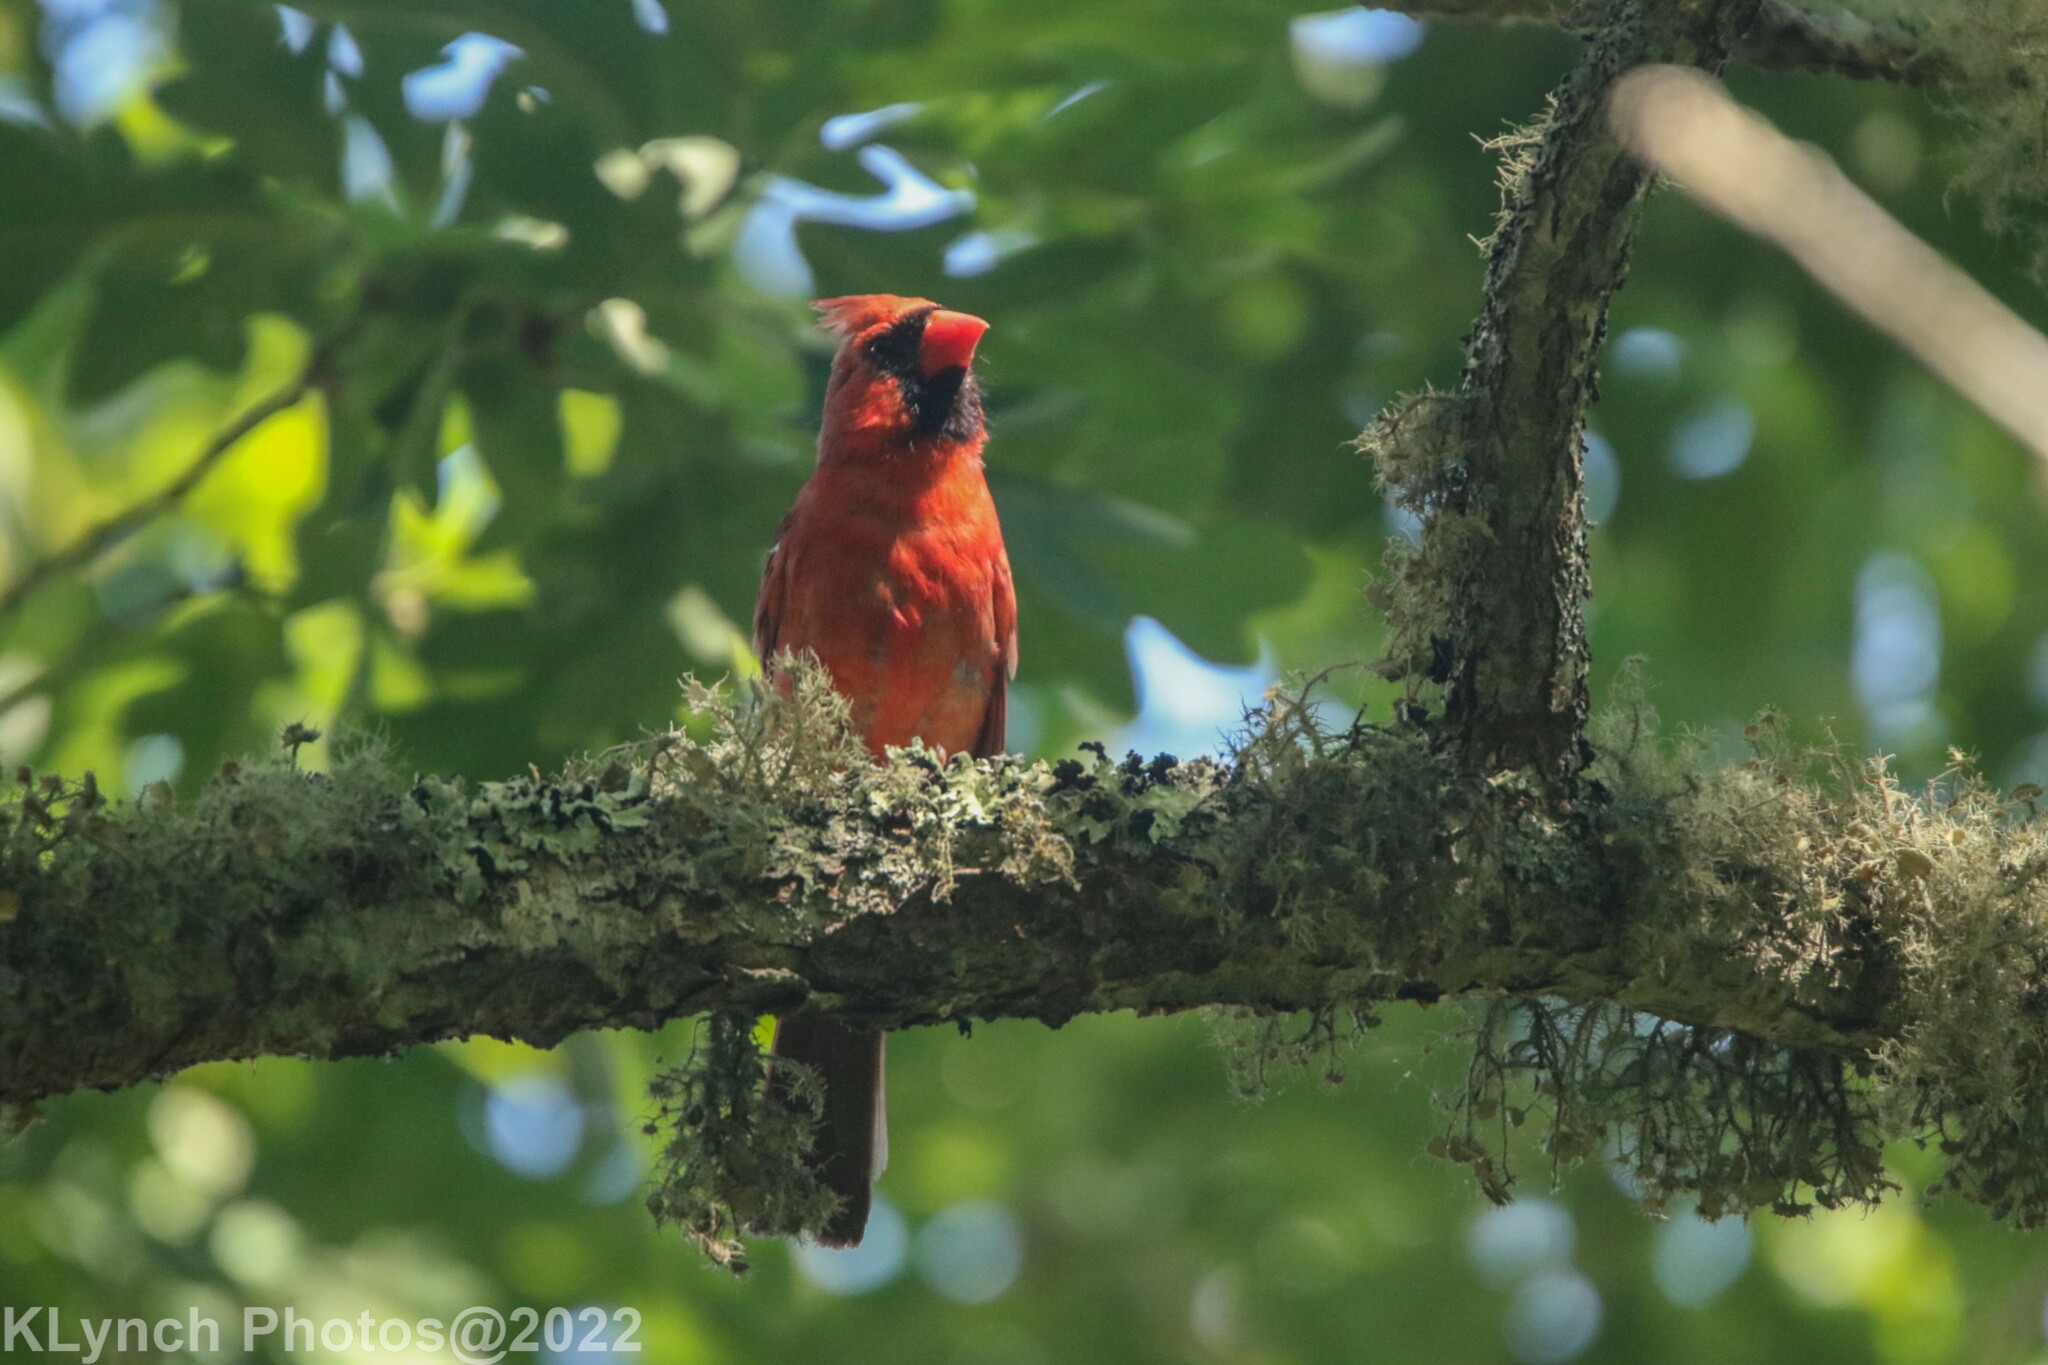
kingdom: Animalia
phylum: Chordata
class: Aves
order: Passeriformes
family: Cardinalidae
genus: Cardinalis
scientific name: Cardinalis cardinalis
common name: Northern cardinal
